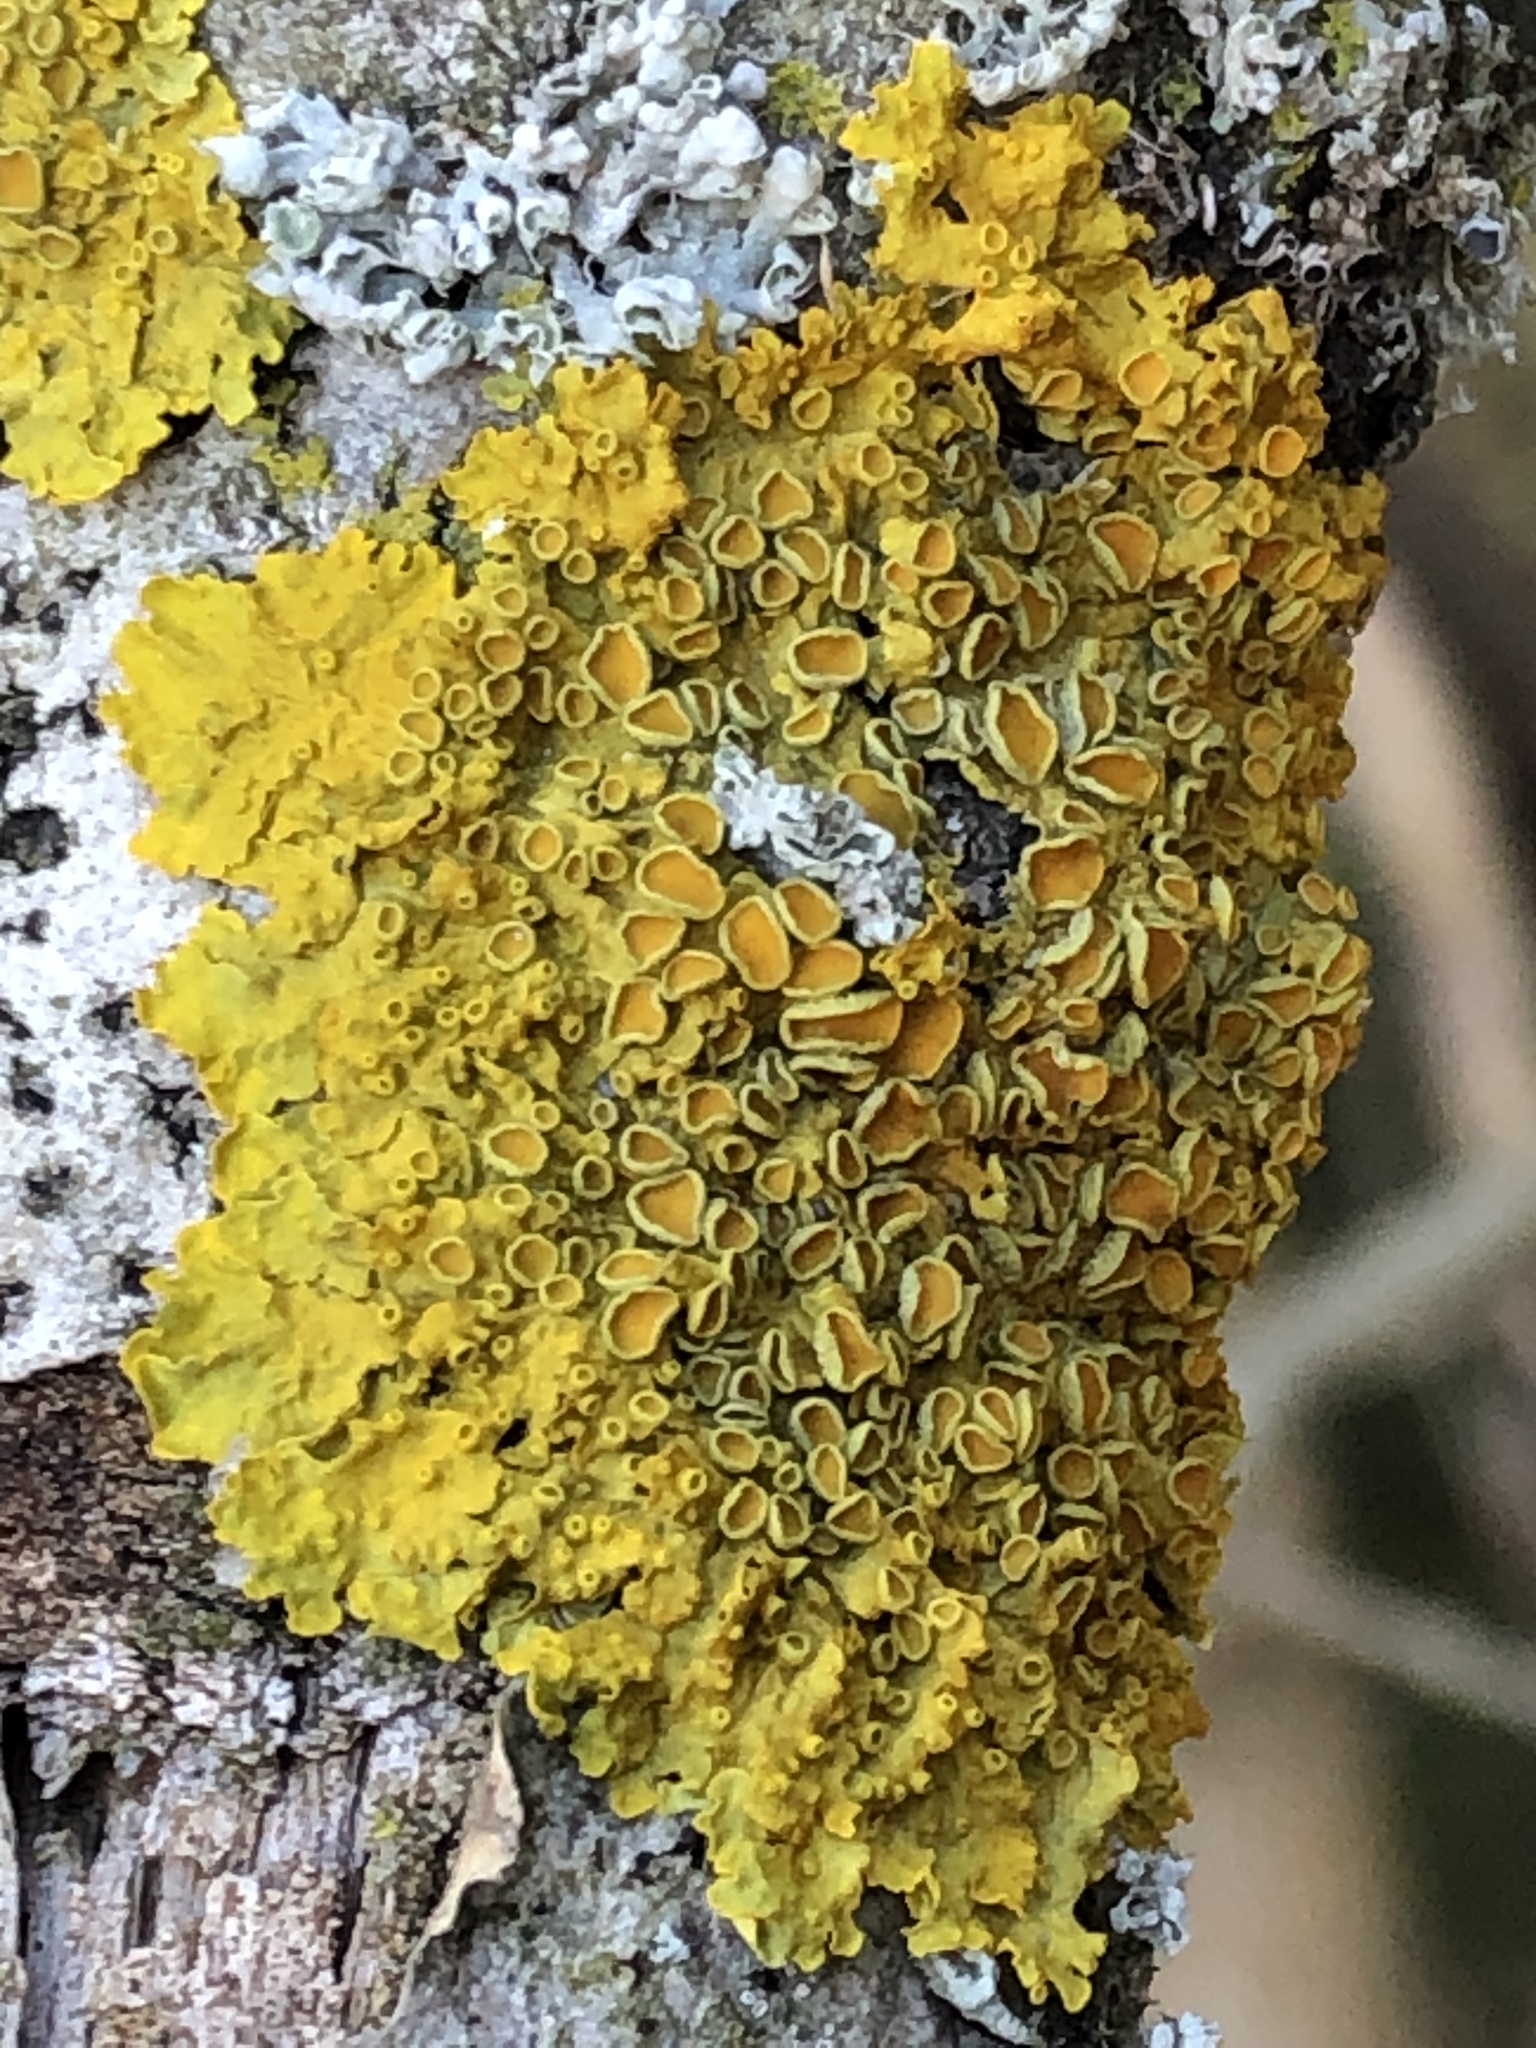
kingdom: Fungi
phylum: Ascomycota
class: Lecanoromycetes
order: Teloschistales
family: Teloschistaceae
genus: Xanthoria
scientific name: Xanthoria parietina
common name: Common orange lichen
